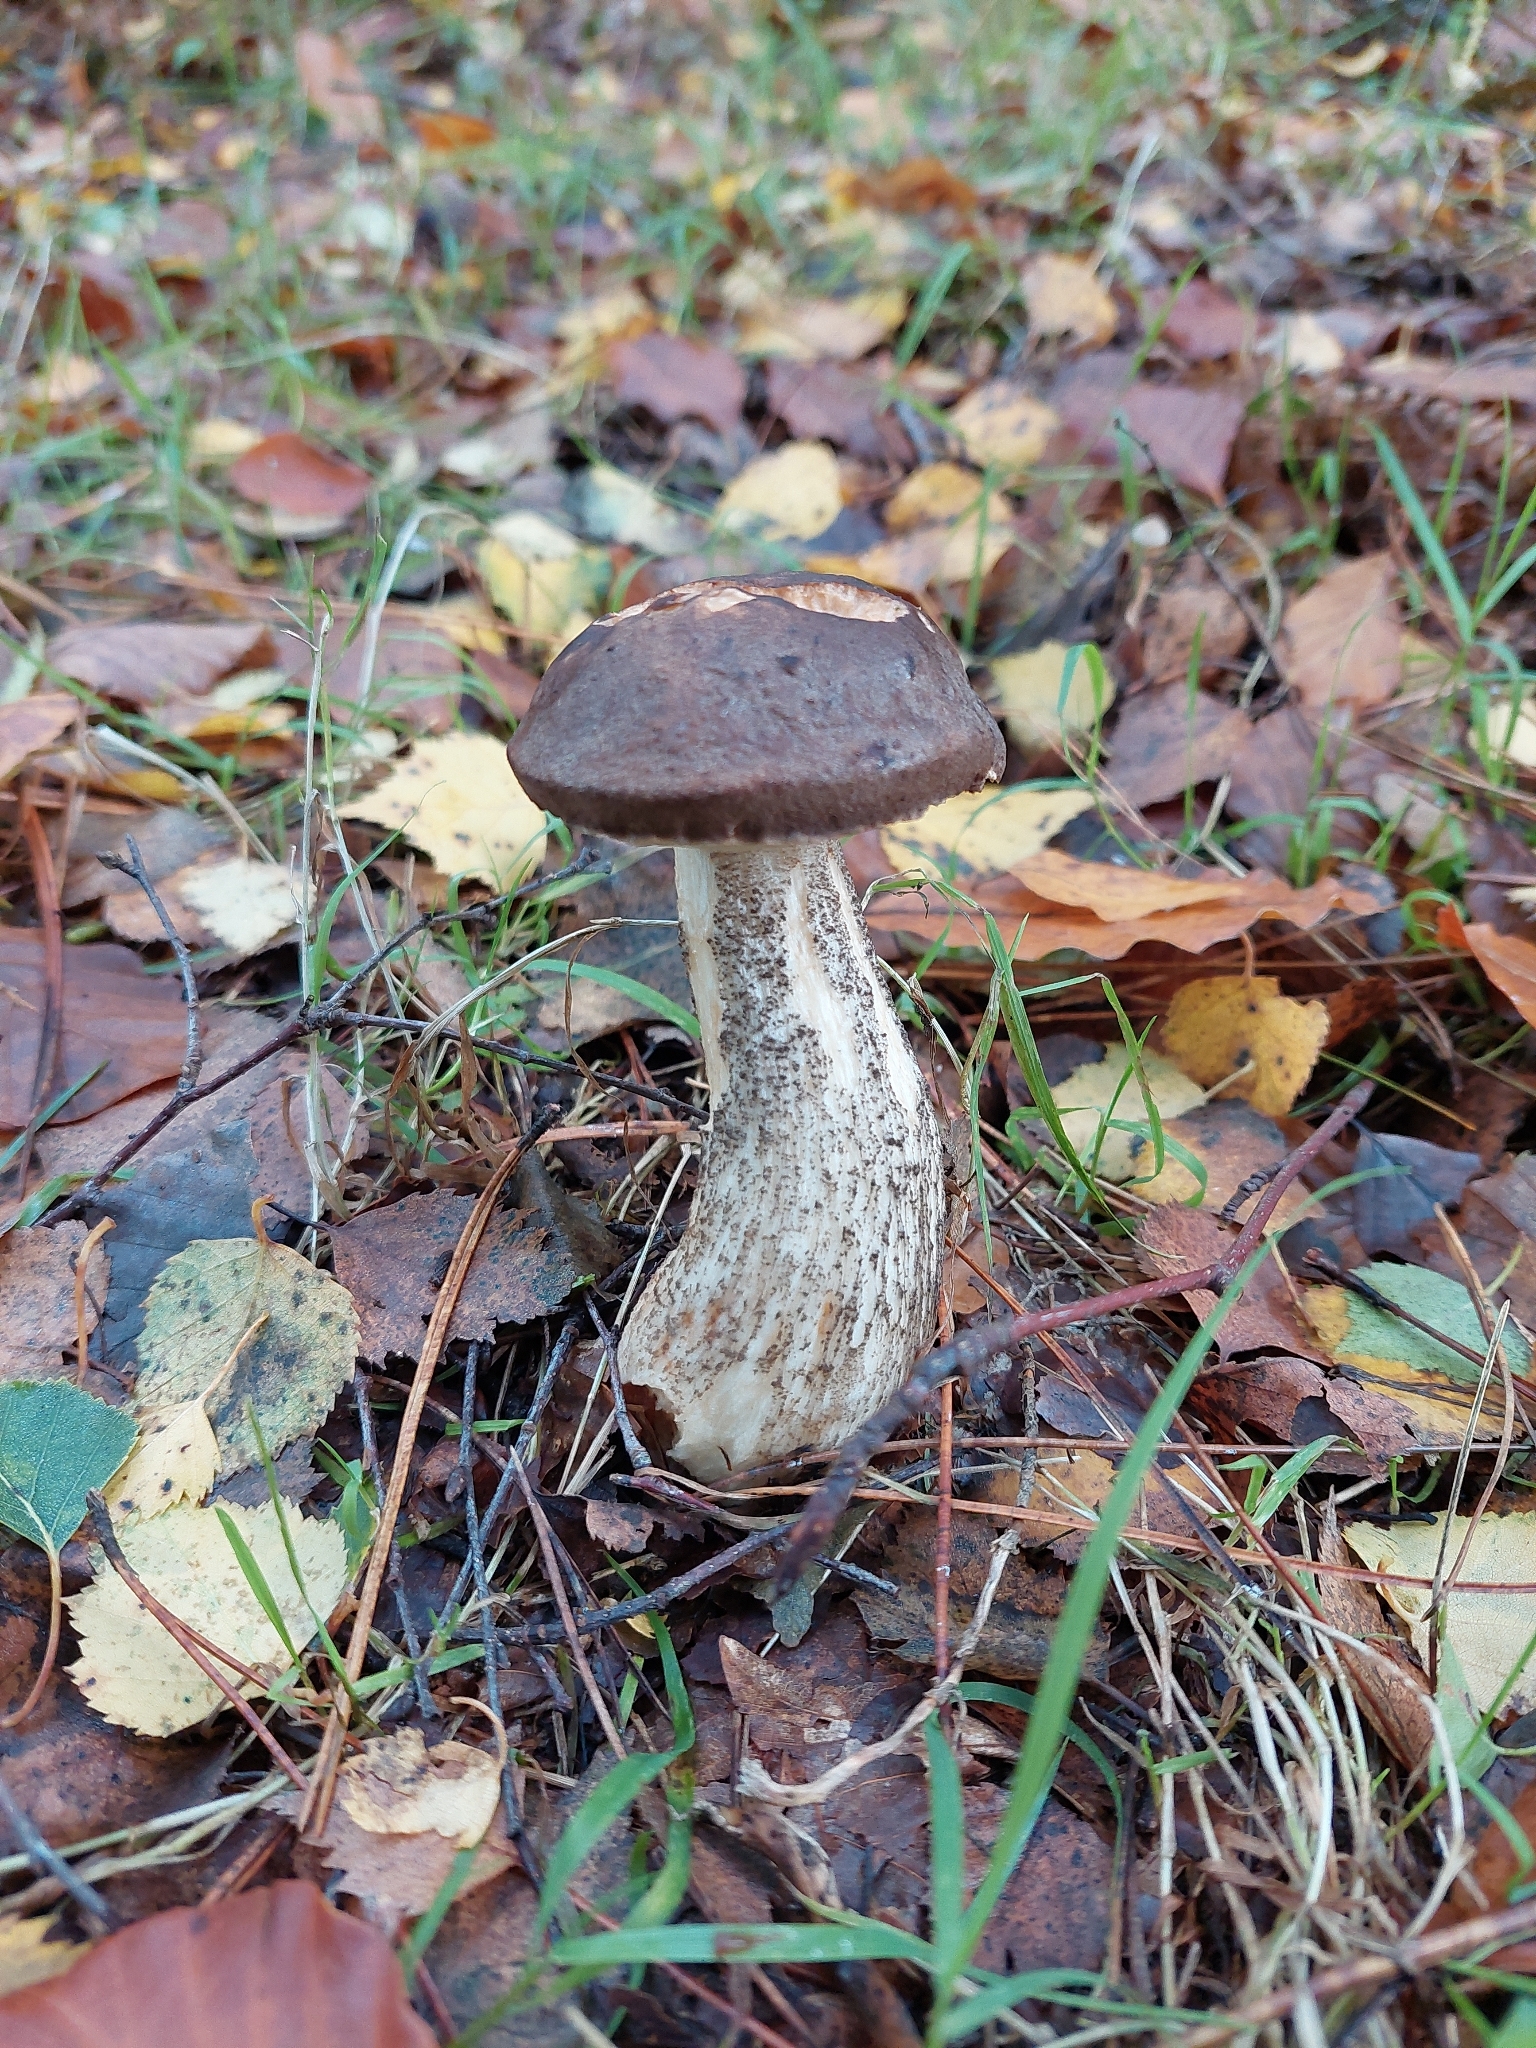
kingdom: Fungi
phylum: Basidiomycota
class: Agaricomycetes
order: Boletales
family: Boletaceae
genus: Leccinum
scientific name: Leccinum scabrum
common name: Blushing bolete
